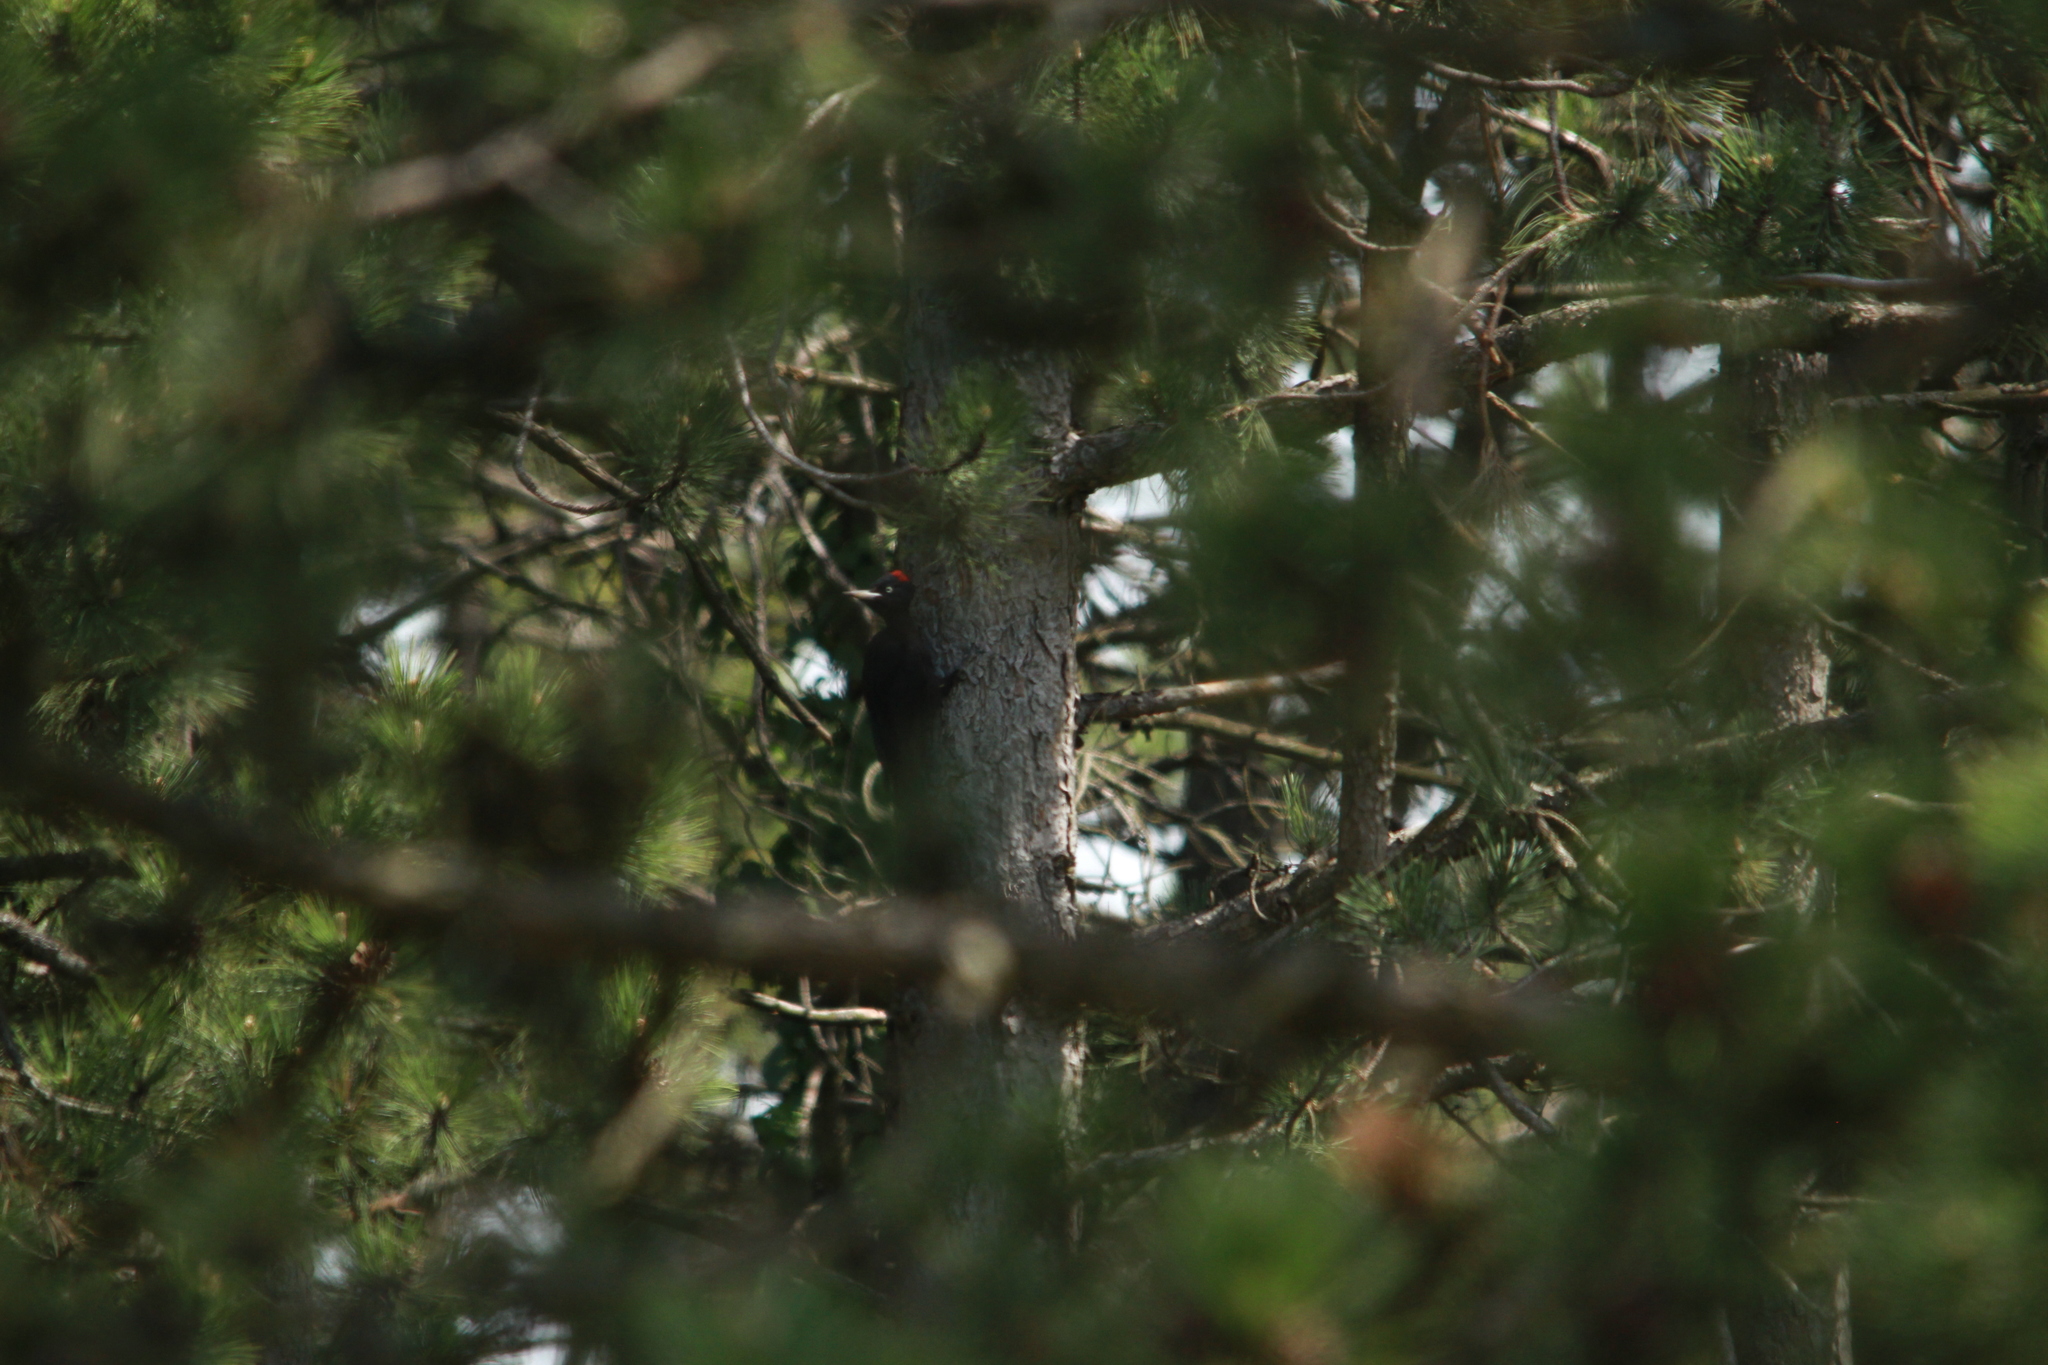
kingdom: Animalia
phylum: Chordata
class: Aves
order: Piciformes
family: Picidae
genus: Dryocopus
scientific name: Dryocopus martius
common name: Black woodpecker
